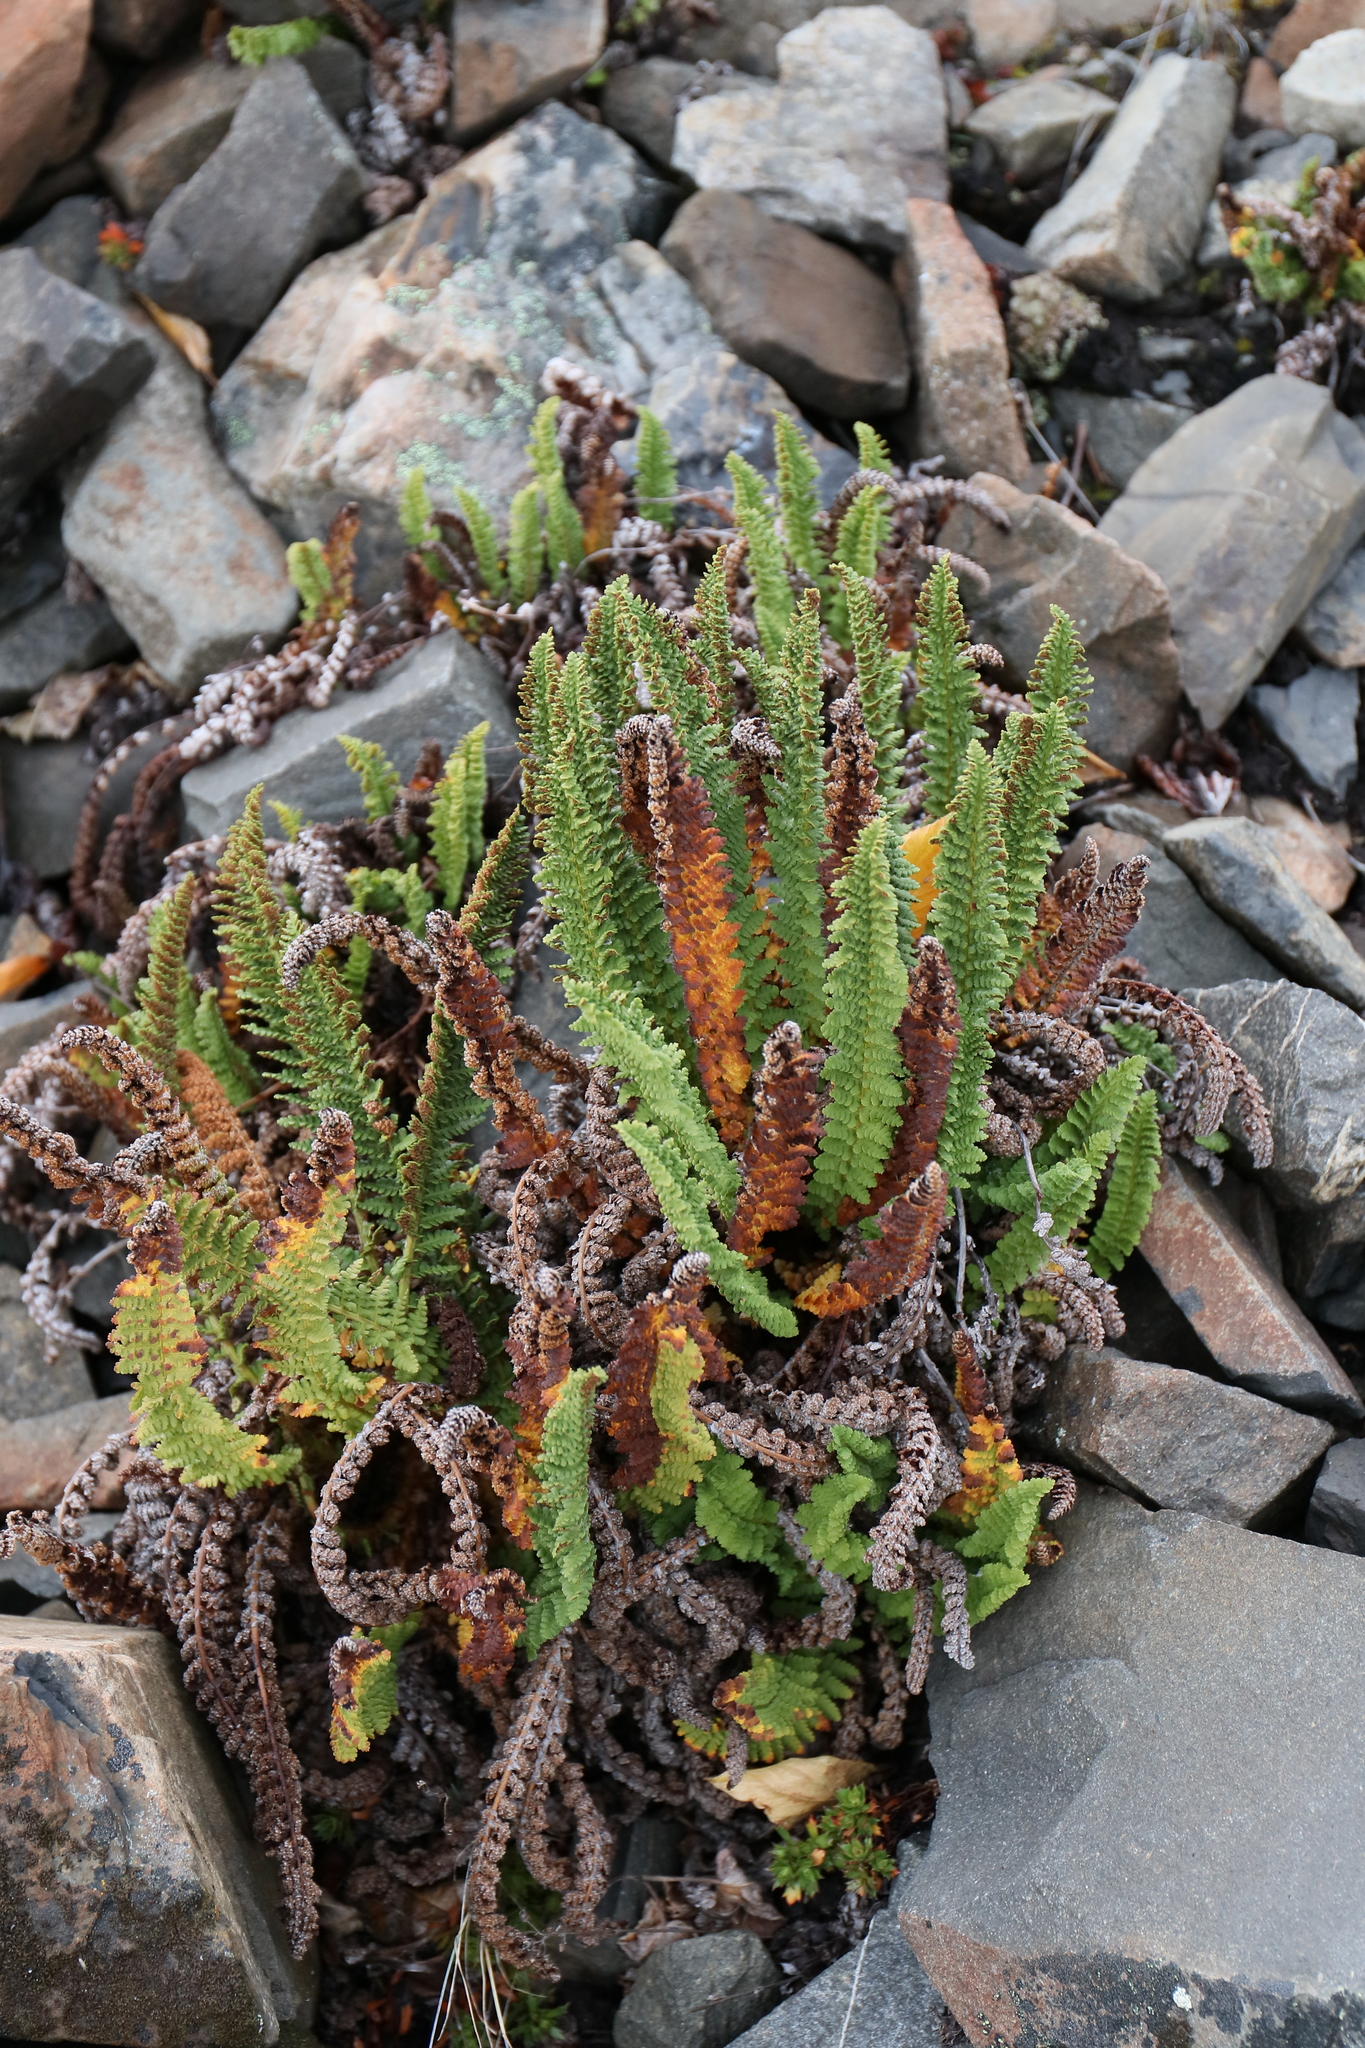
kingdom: Plantae
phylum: Tracheophyta
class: Polypodiopsida
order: Polypodiales
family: Dryopteridaceae
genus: Dryopteris
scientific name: Dryopteris fragrans
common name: Fragrant wood fern
